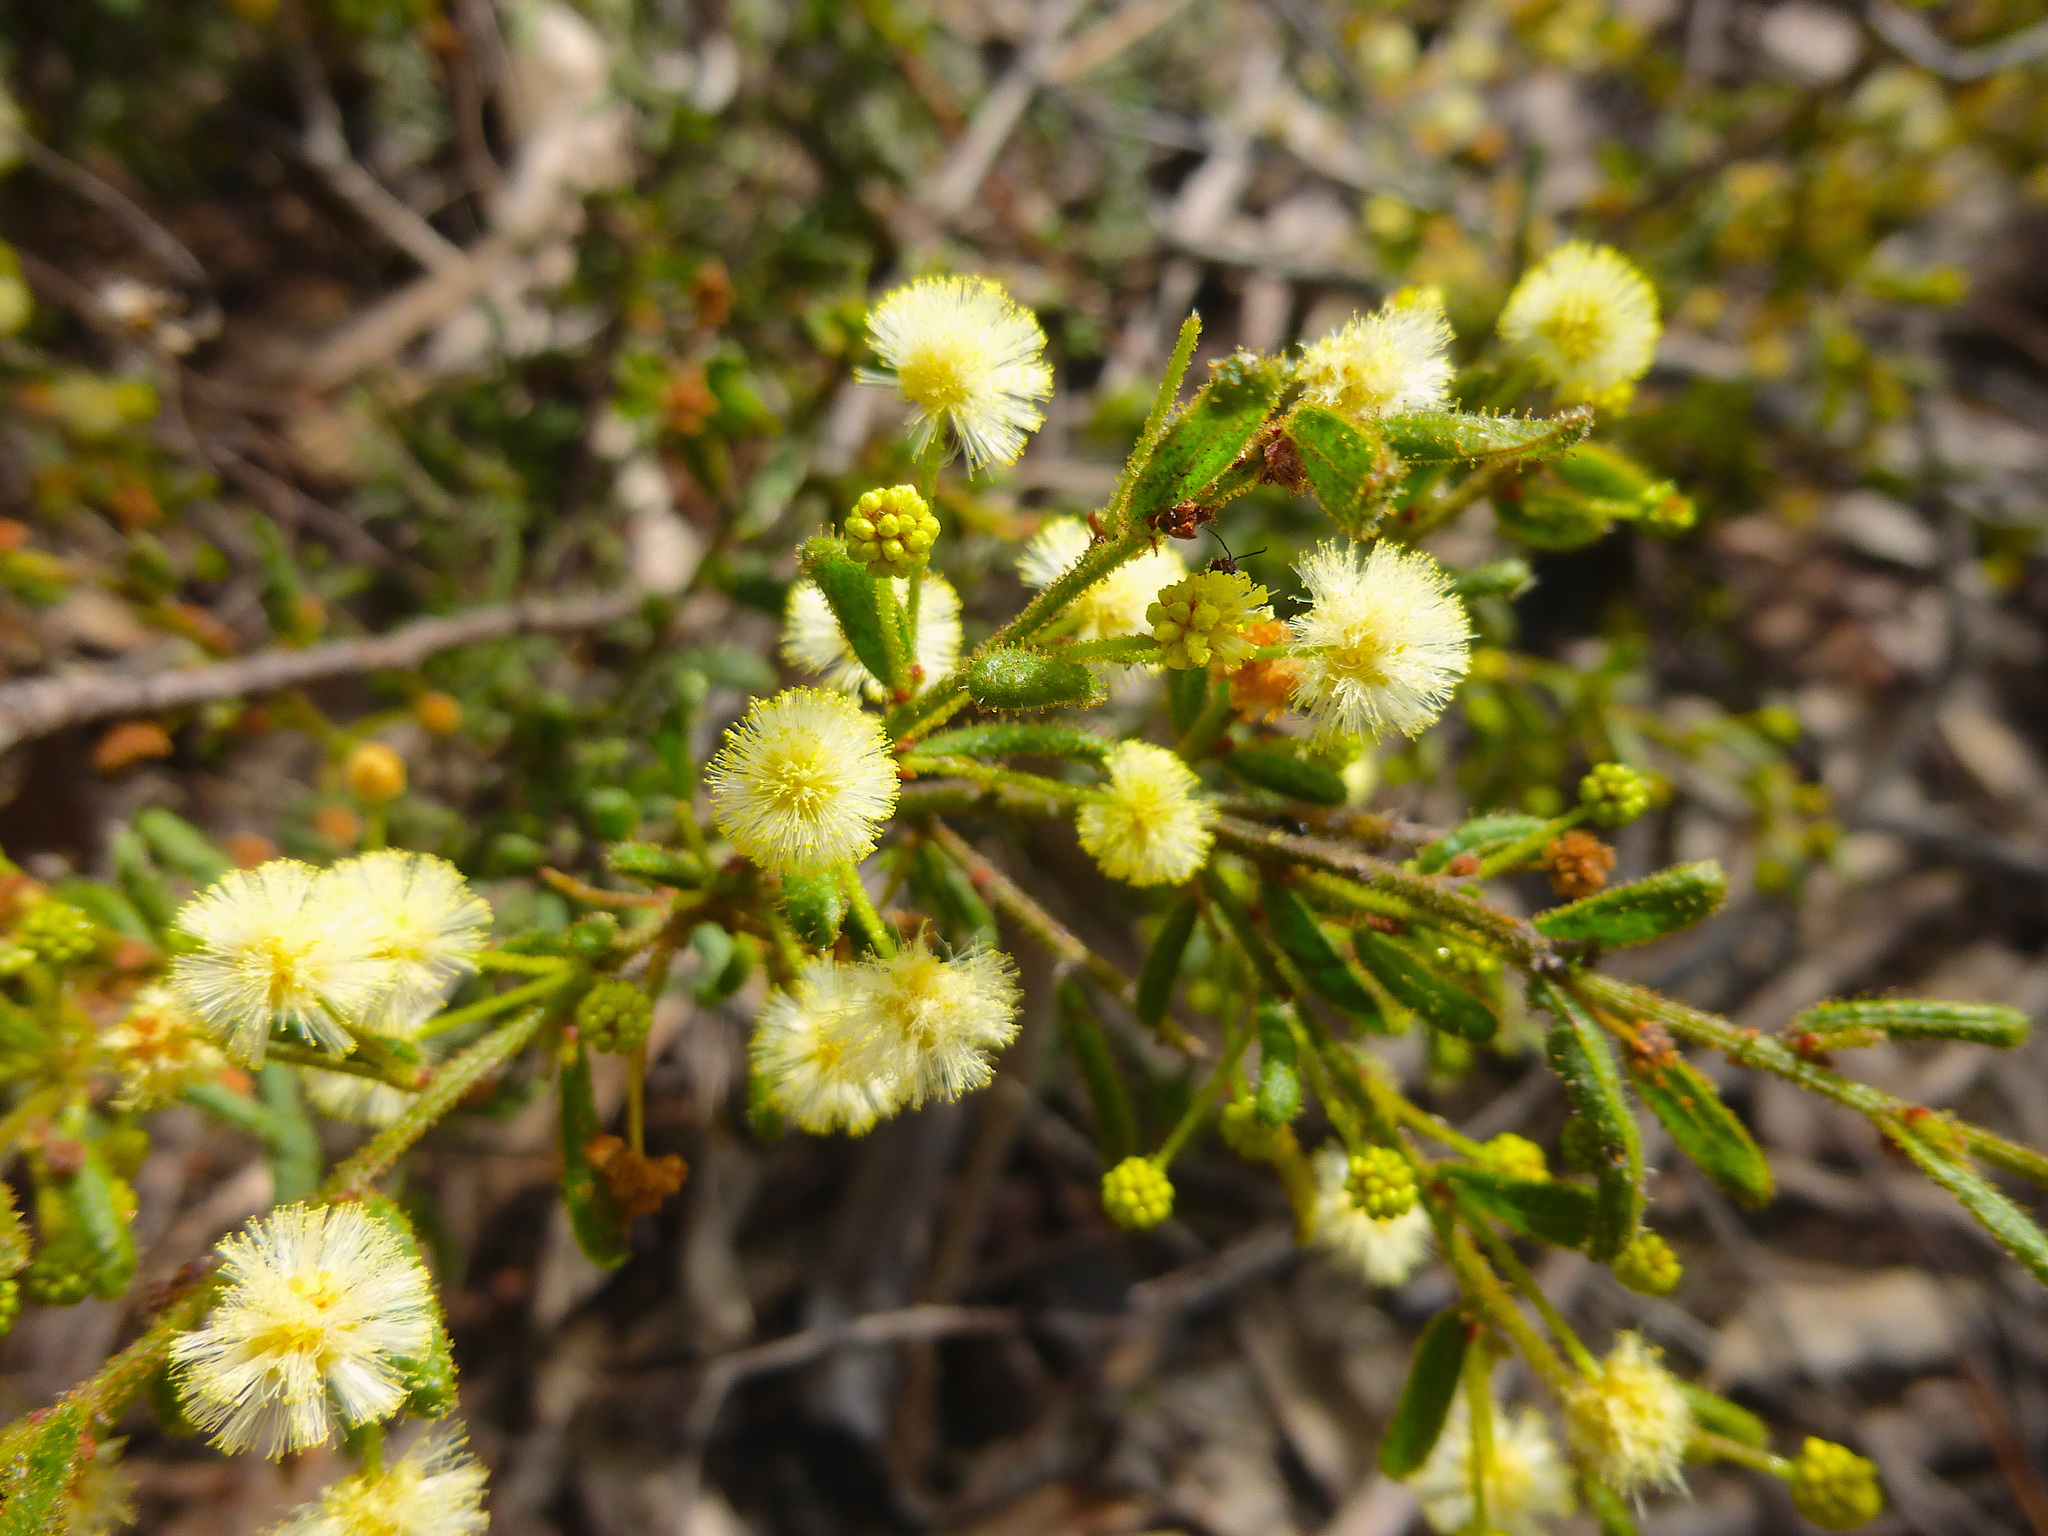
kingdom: Plantae
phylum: Tracheophyta
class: Magnoliopsida
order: Fabales
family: Fabaceae
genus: Acacia
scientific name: Acacia aspera
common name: Rough wattle
